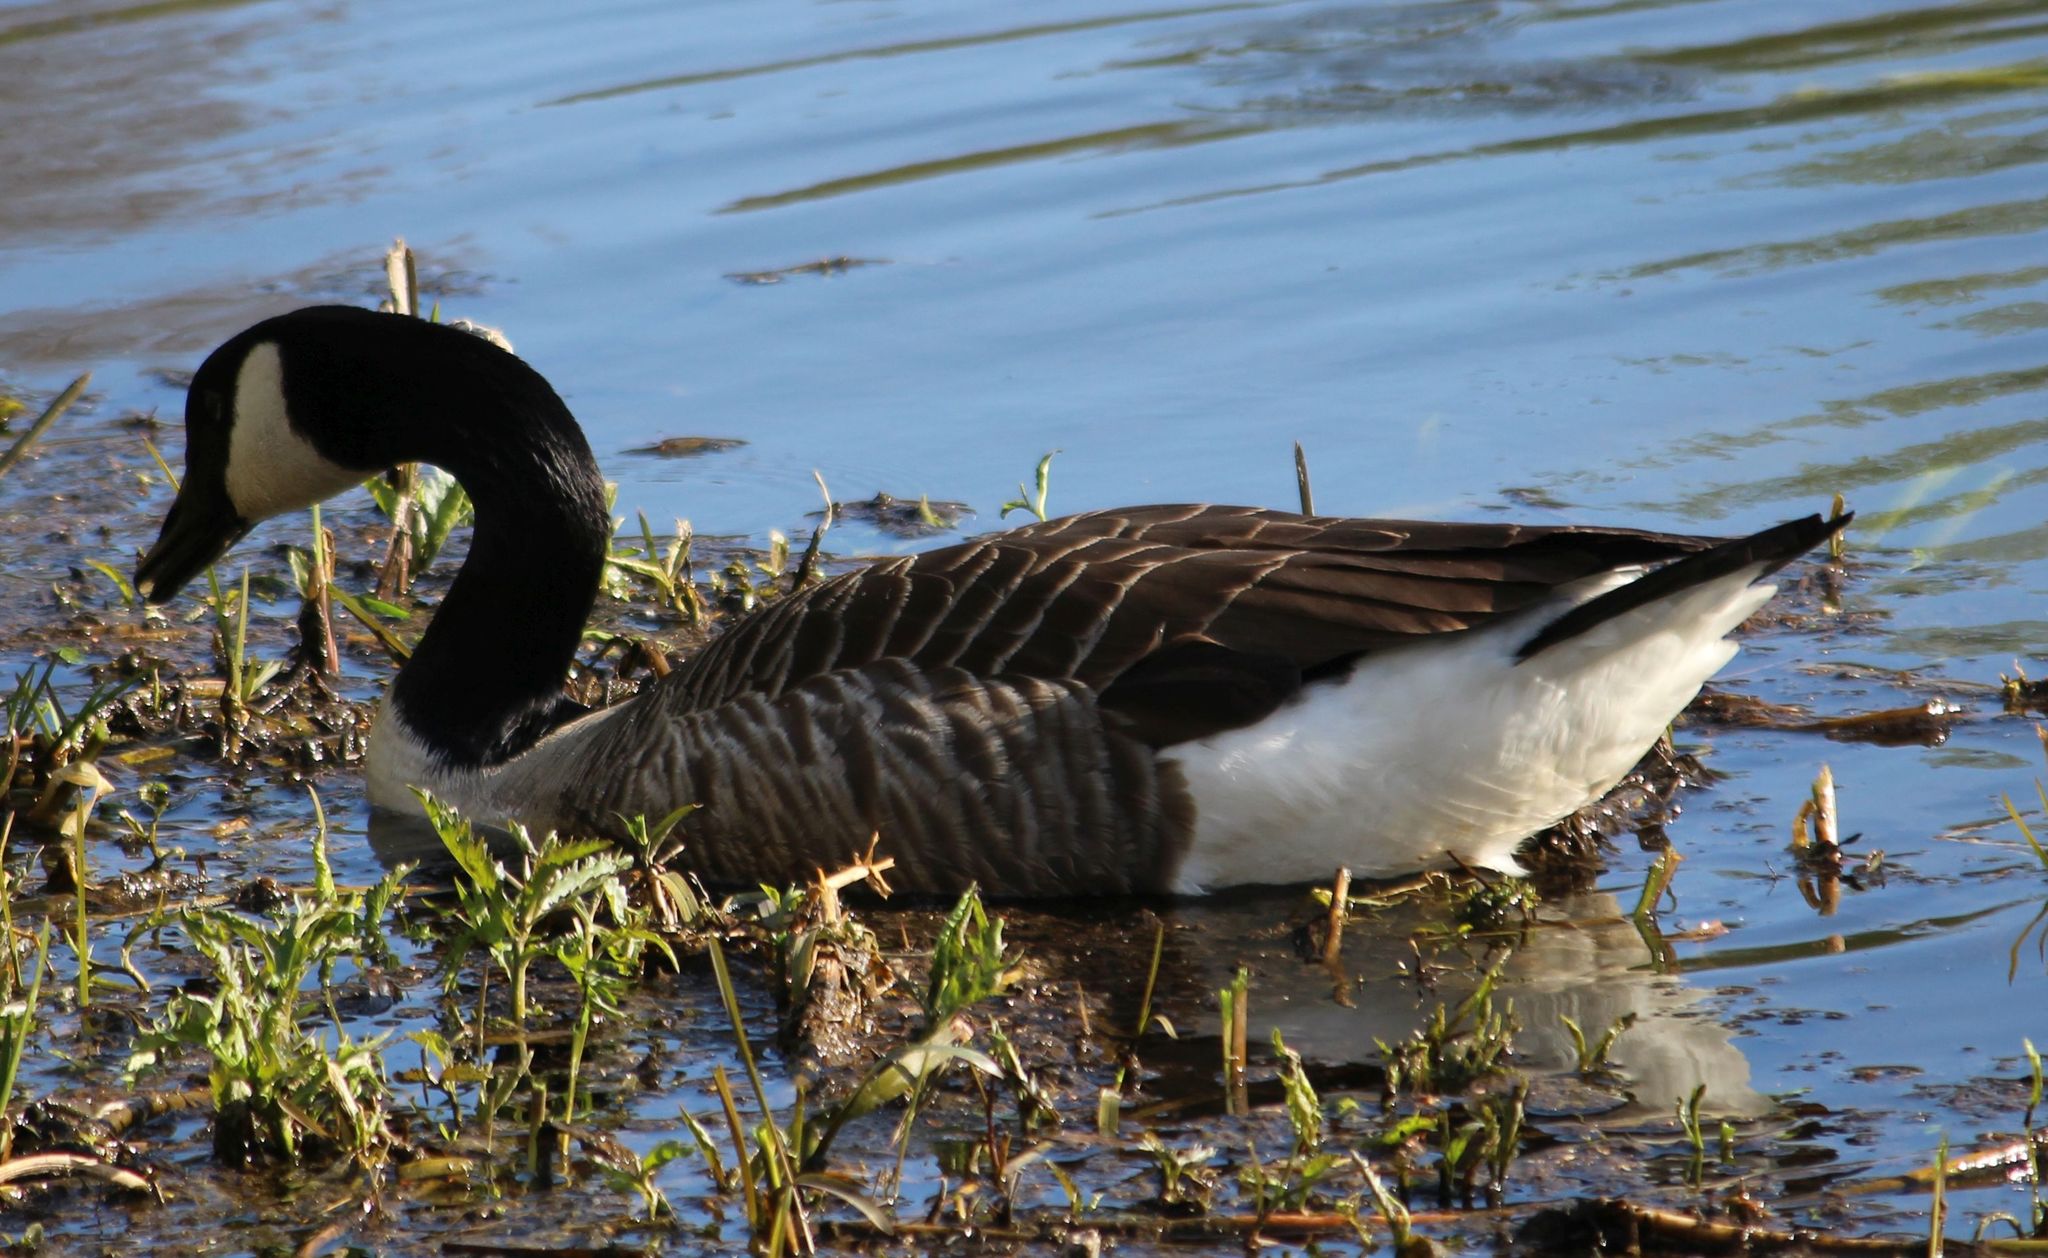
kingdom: Animalia
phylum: Chordata
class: Aves
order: Anseriformes
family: Anatidae
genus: Branta
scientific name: Branta canadensis
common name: Canada goose
